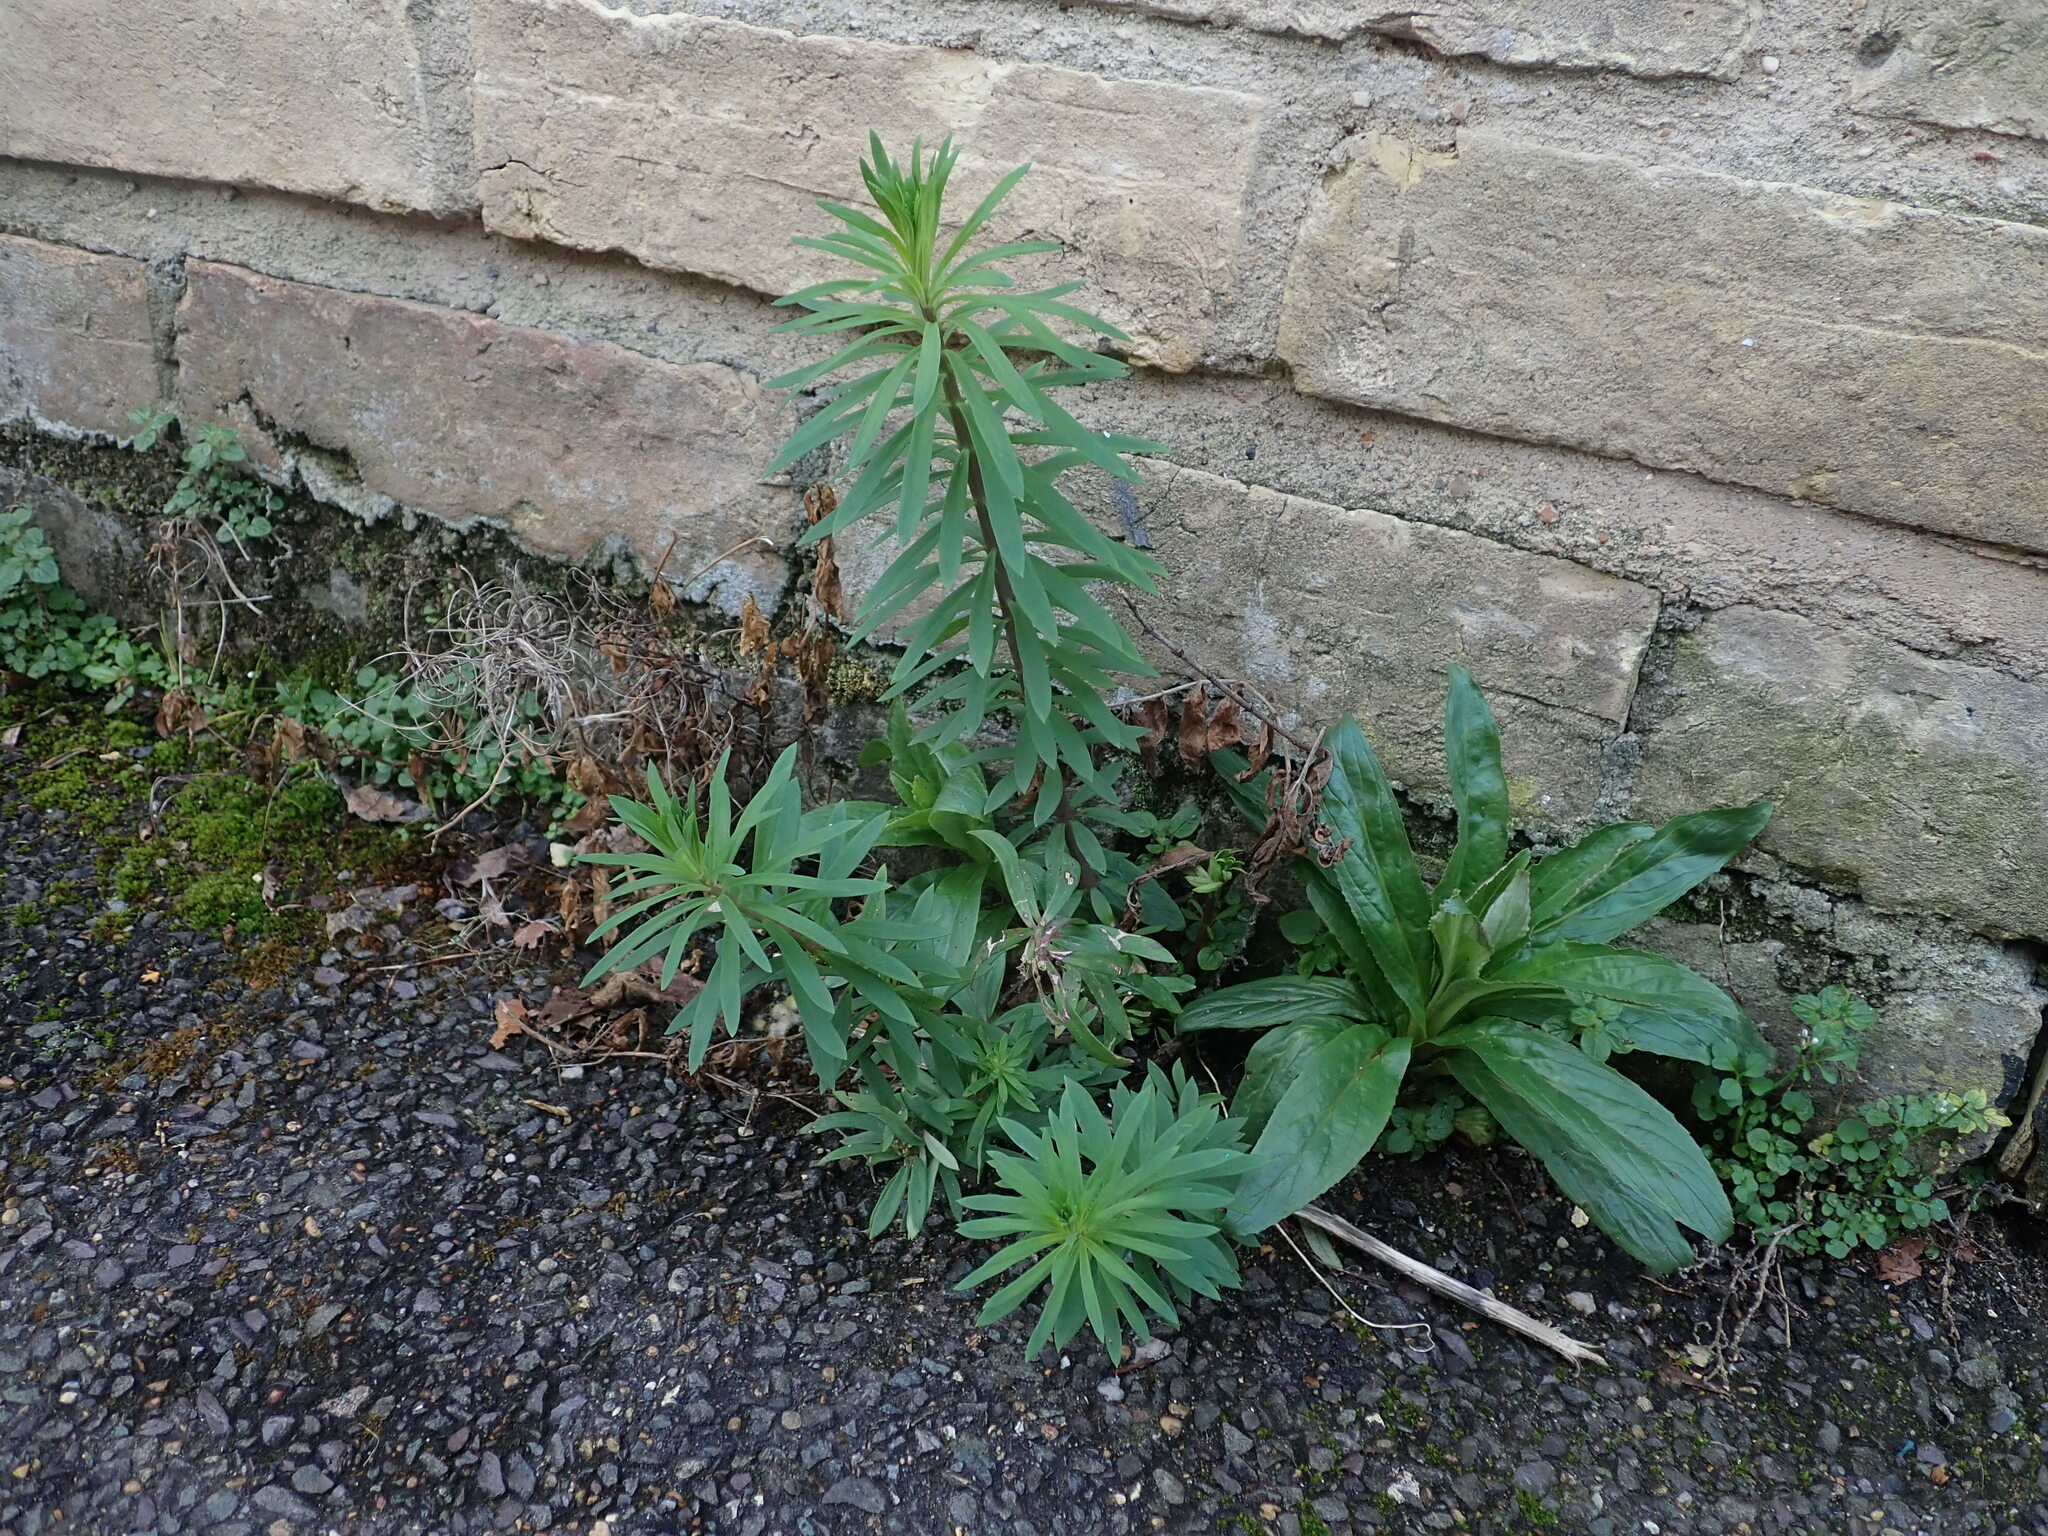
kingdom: Plantae
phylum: Tracheophyta
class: Magnoliopsida
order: Lamiales
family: Plantaginaceae
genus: Linaria
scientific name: Linaria purpurea
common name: Purple toadflax
